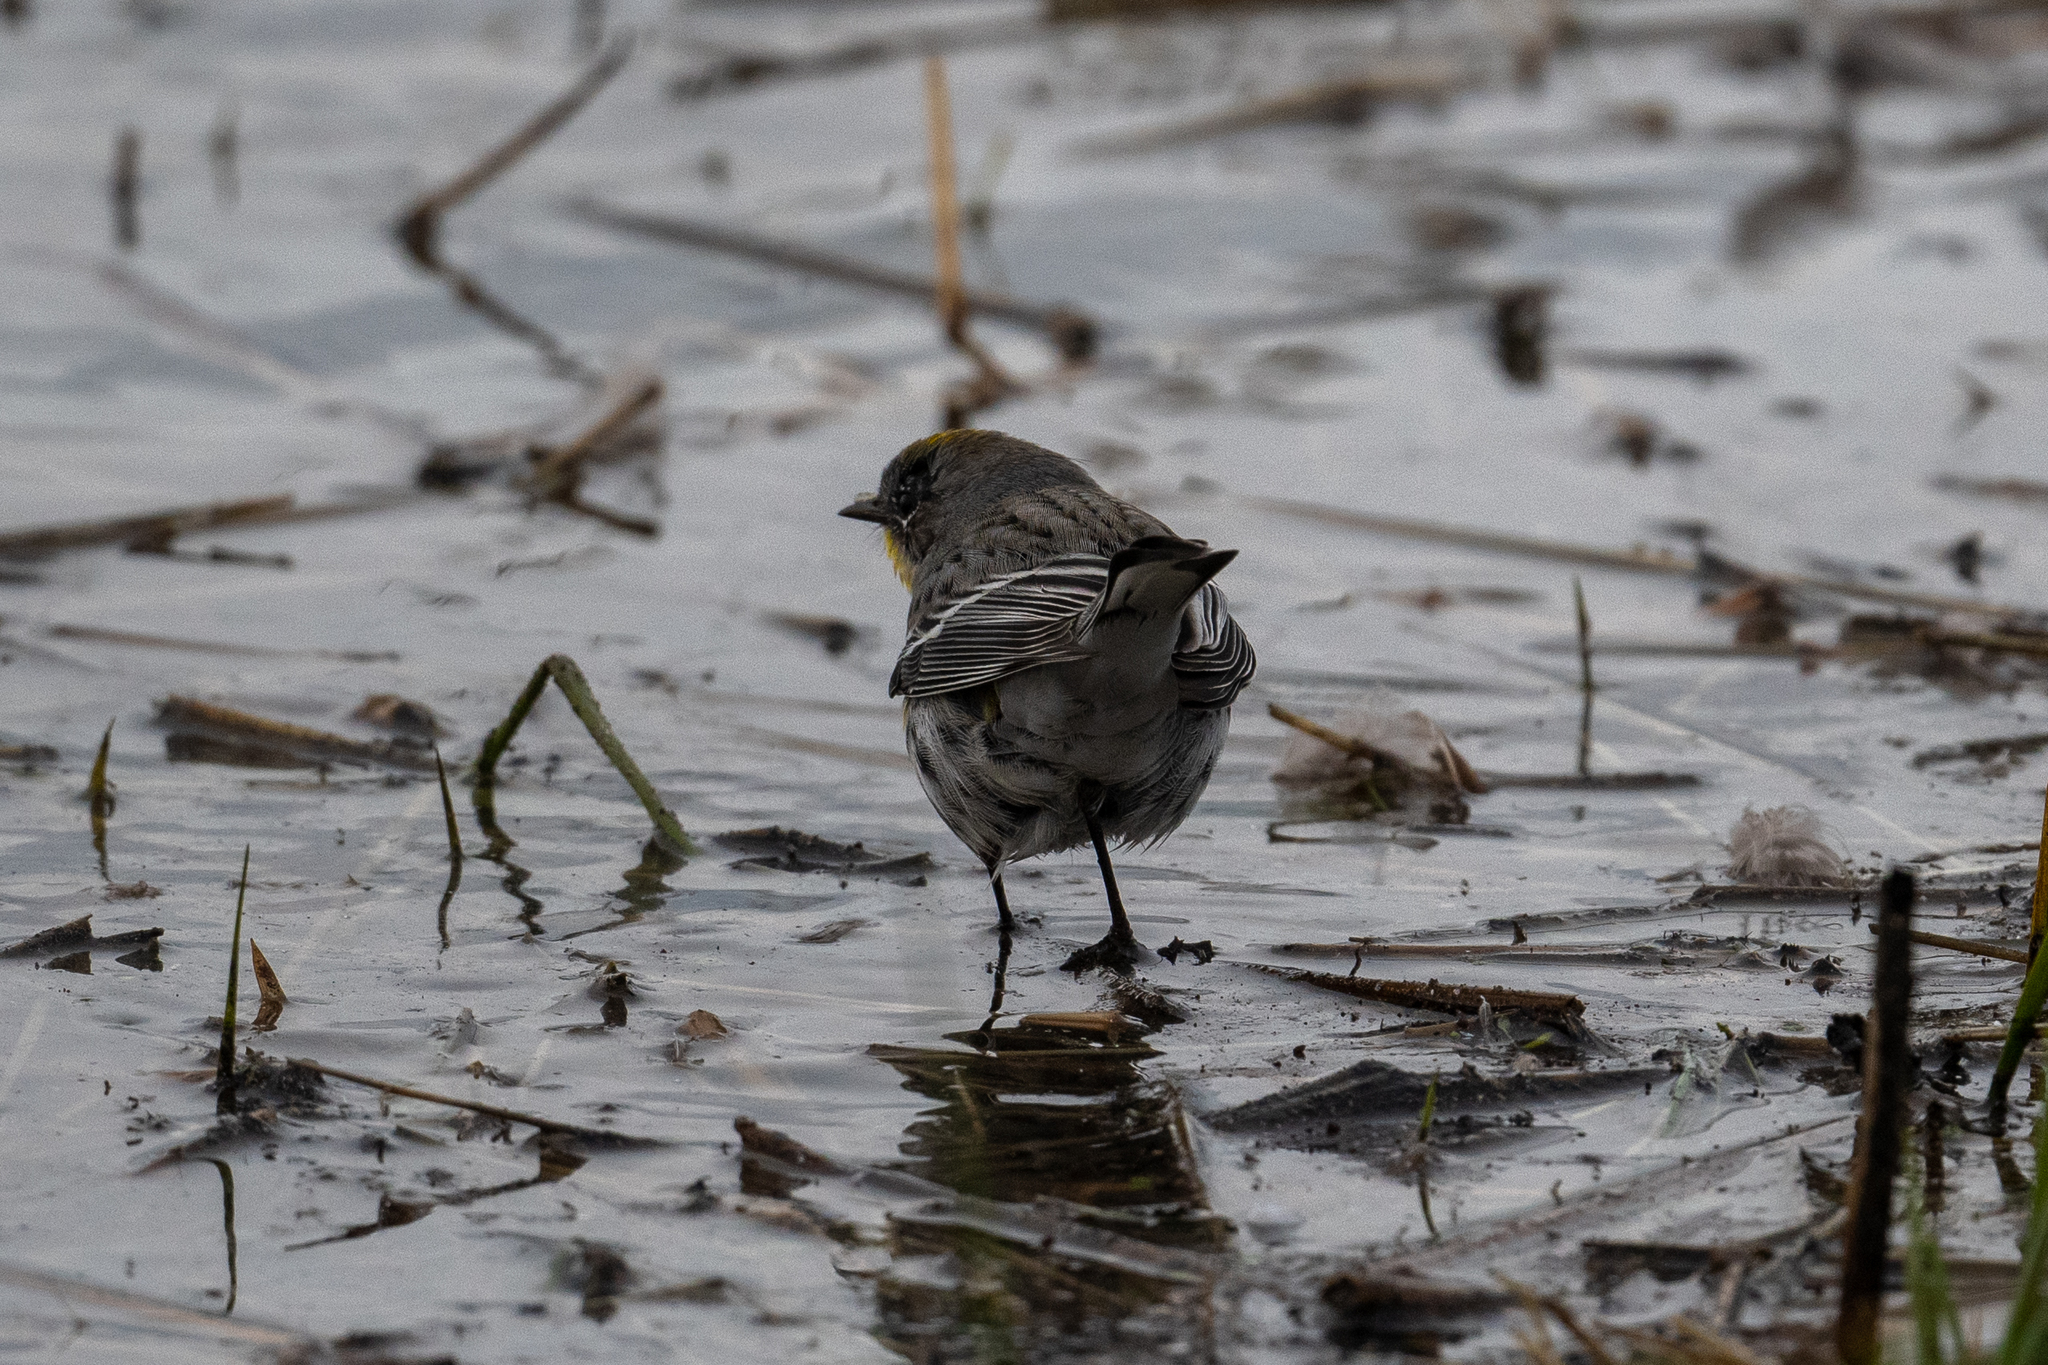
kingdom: Animalia
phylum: Chordata
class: Aves
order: Passeriformes
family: Parulidae
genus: Setophaga
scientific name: Setophaga coronata
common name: Myrtle warbler
